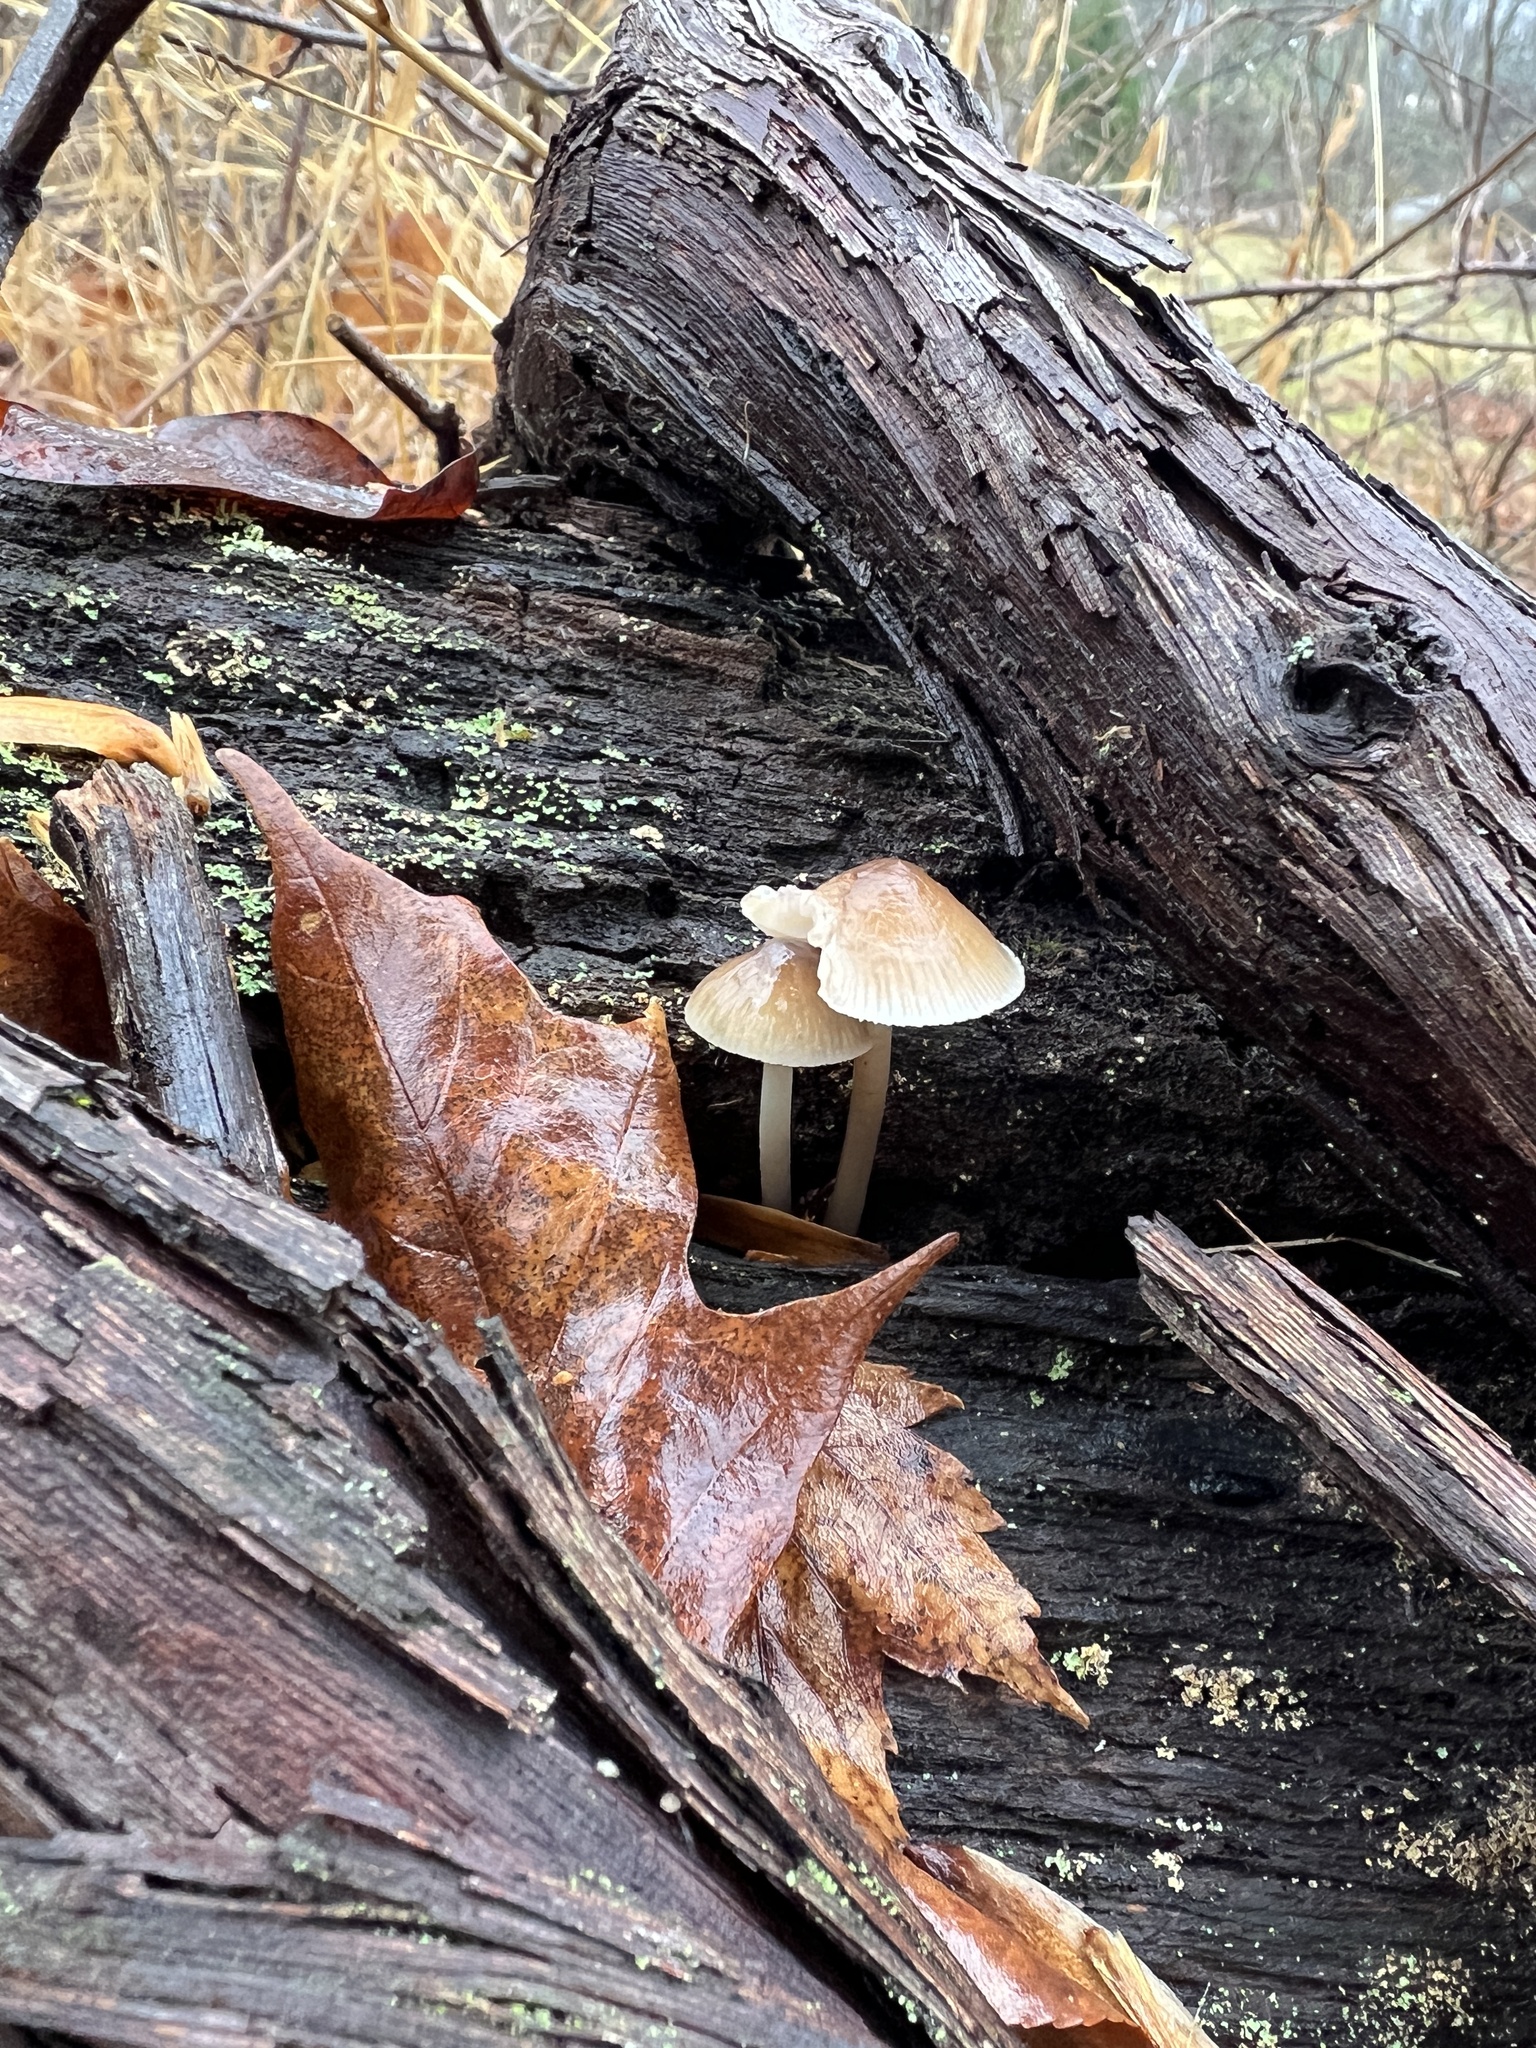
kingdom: Fungi
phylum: Basidiomycota
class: Agaricomycetes
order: Agaricales
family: Mycenaceae
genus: Mycena
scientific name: Mycena galericulata
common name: Bonnet mycena
